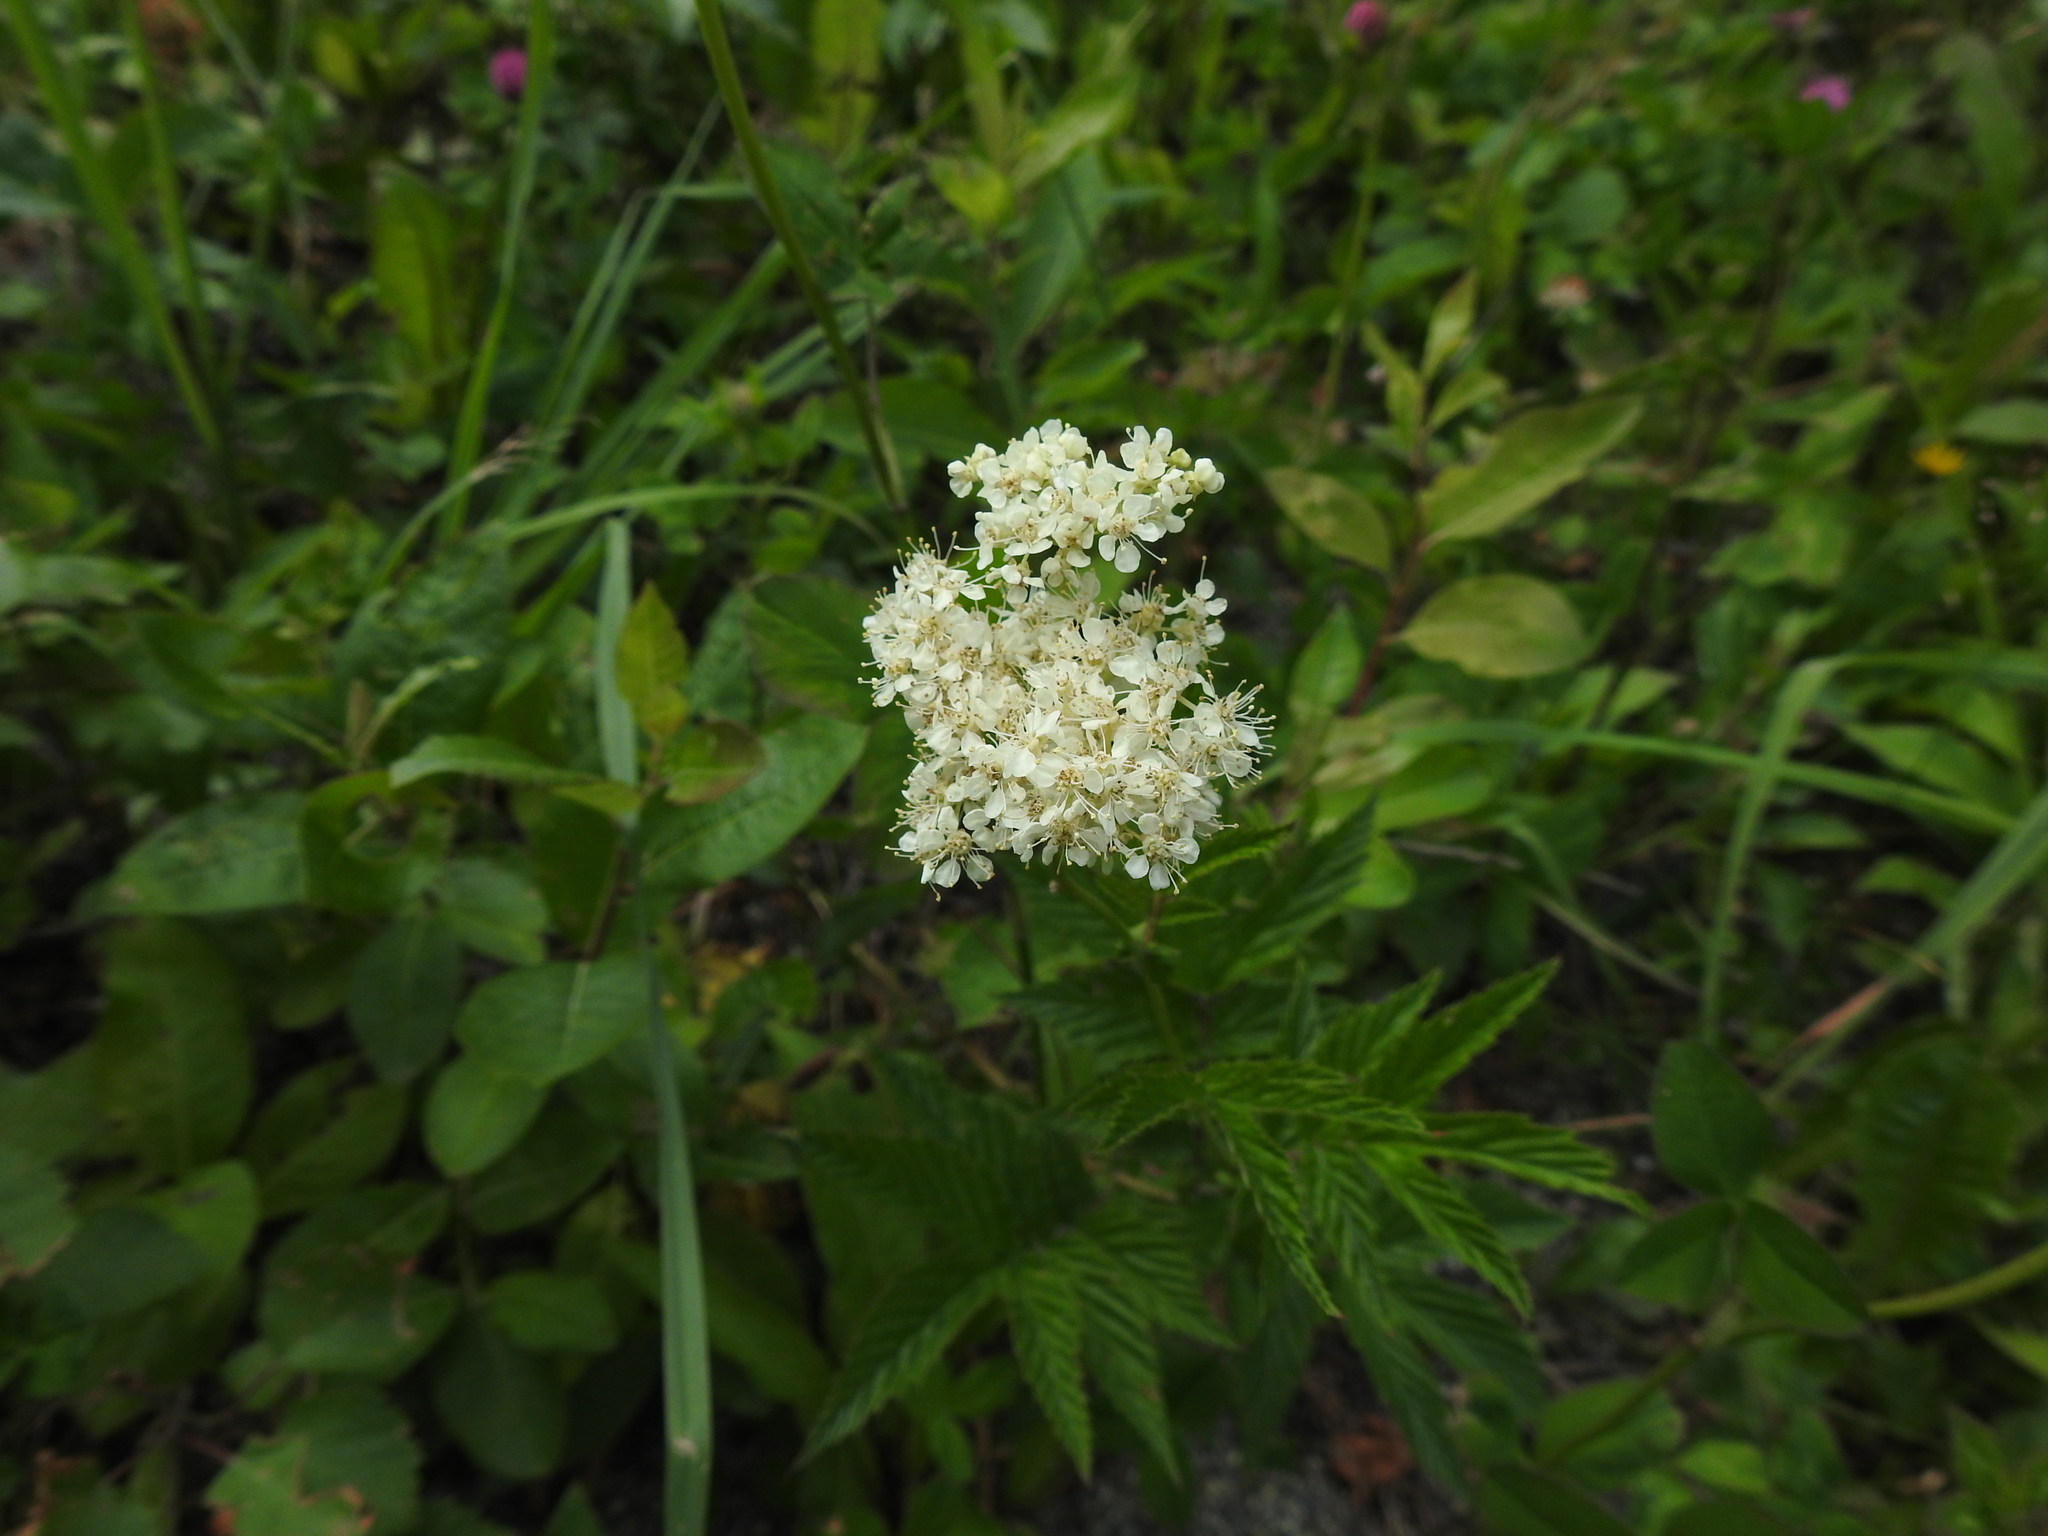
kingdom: Plantae
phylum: Tracheophyta
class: Magnoliopsida
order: Rosales
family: Rosaceae
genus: Filipendula
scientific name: Filipendula ulmaria
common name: Meadowsweet
